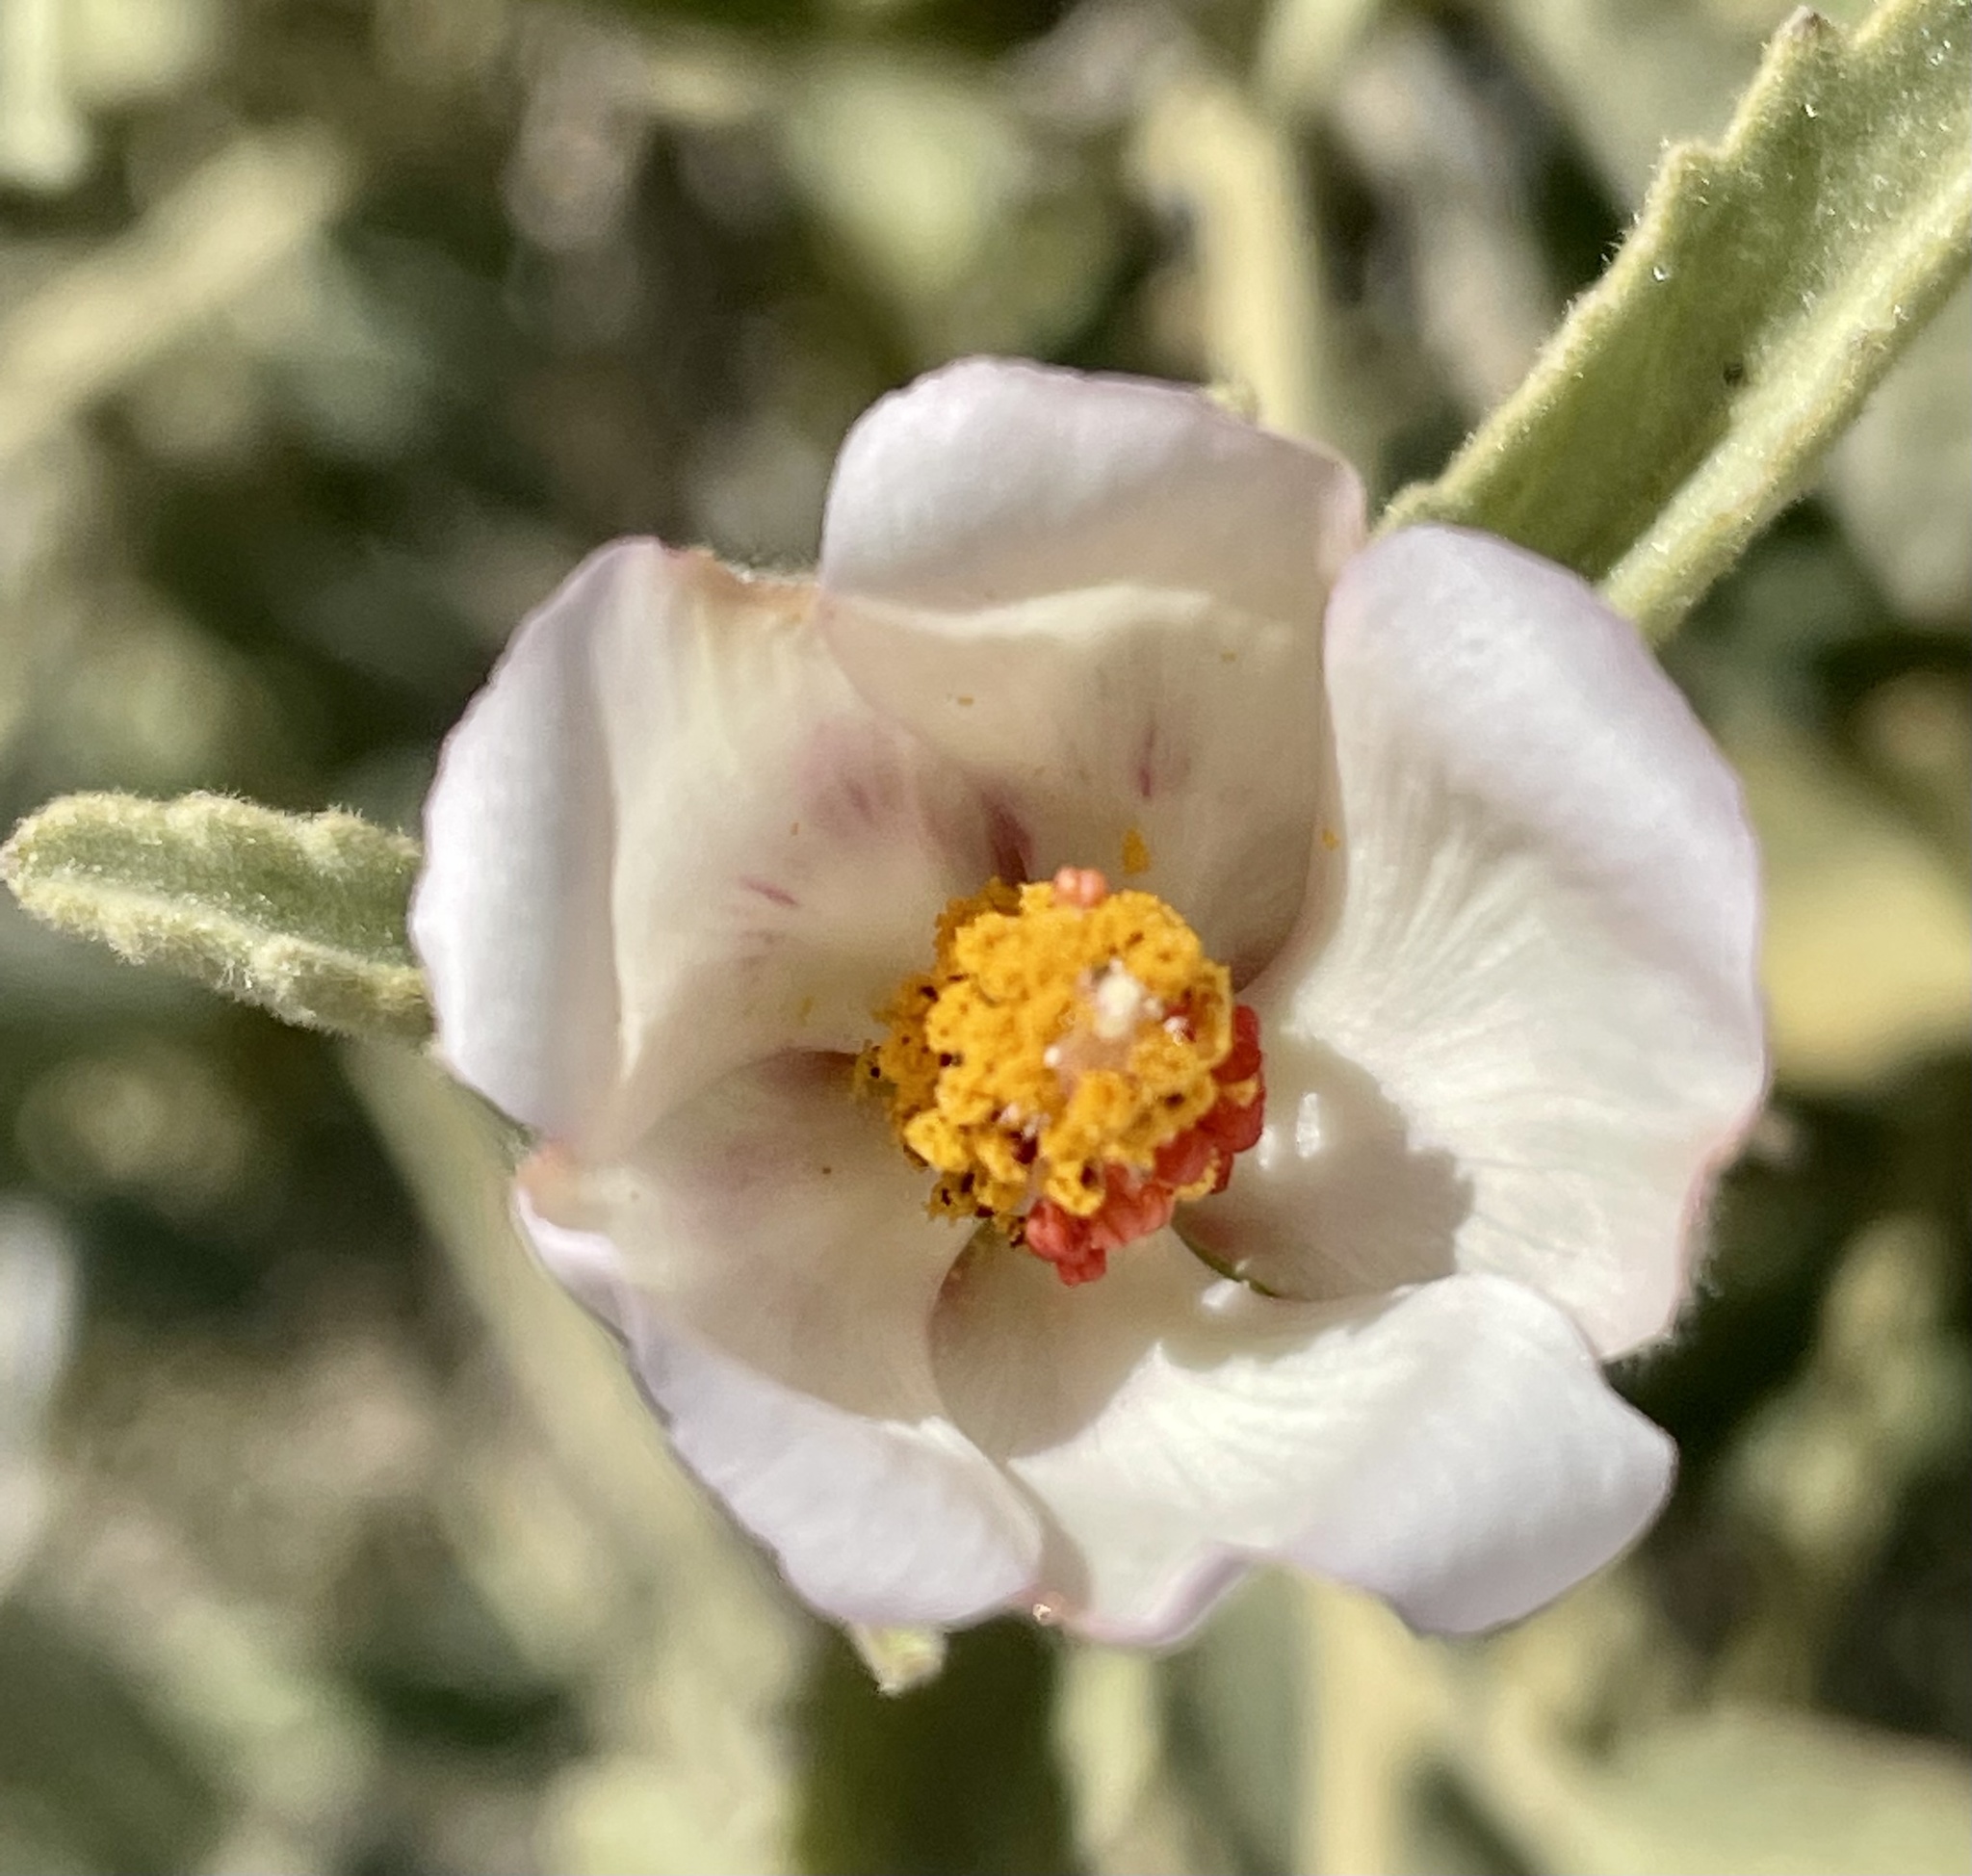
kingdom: Plantae
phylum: Tracheophyta
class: Magnoliopsida
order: Malvales
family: Malvaceae
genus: Hibiscus
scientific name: Hibiscus denudatus
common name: Paleface
